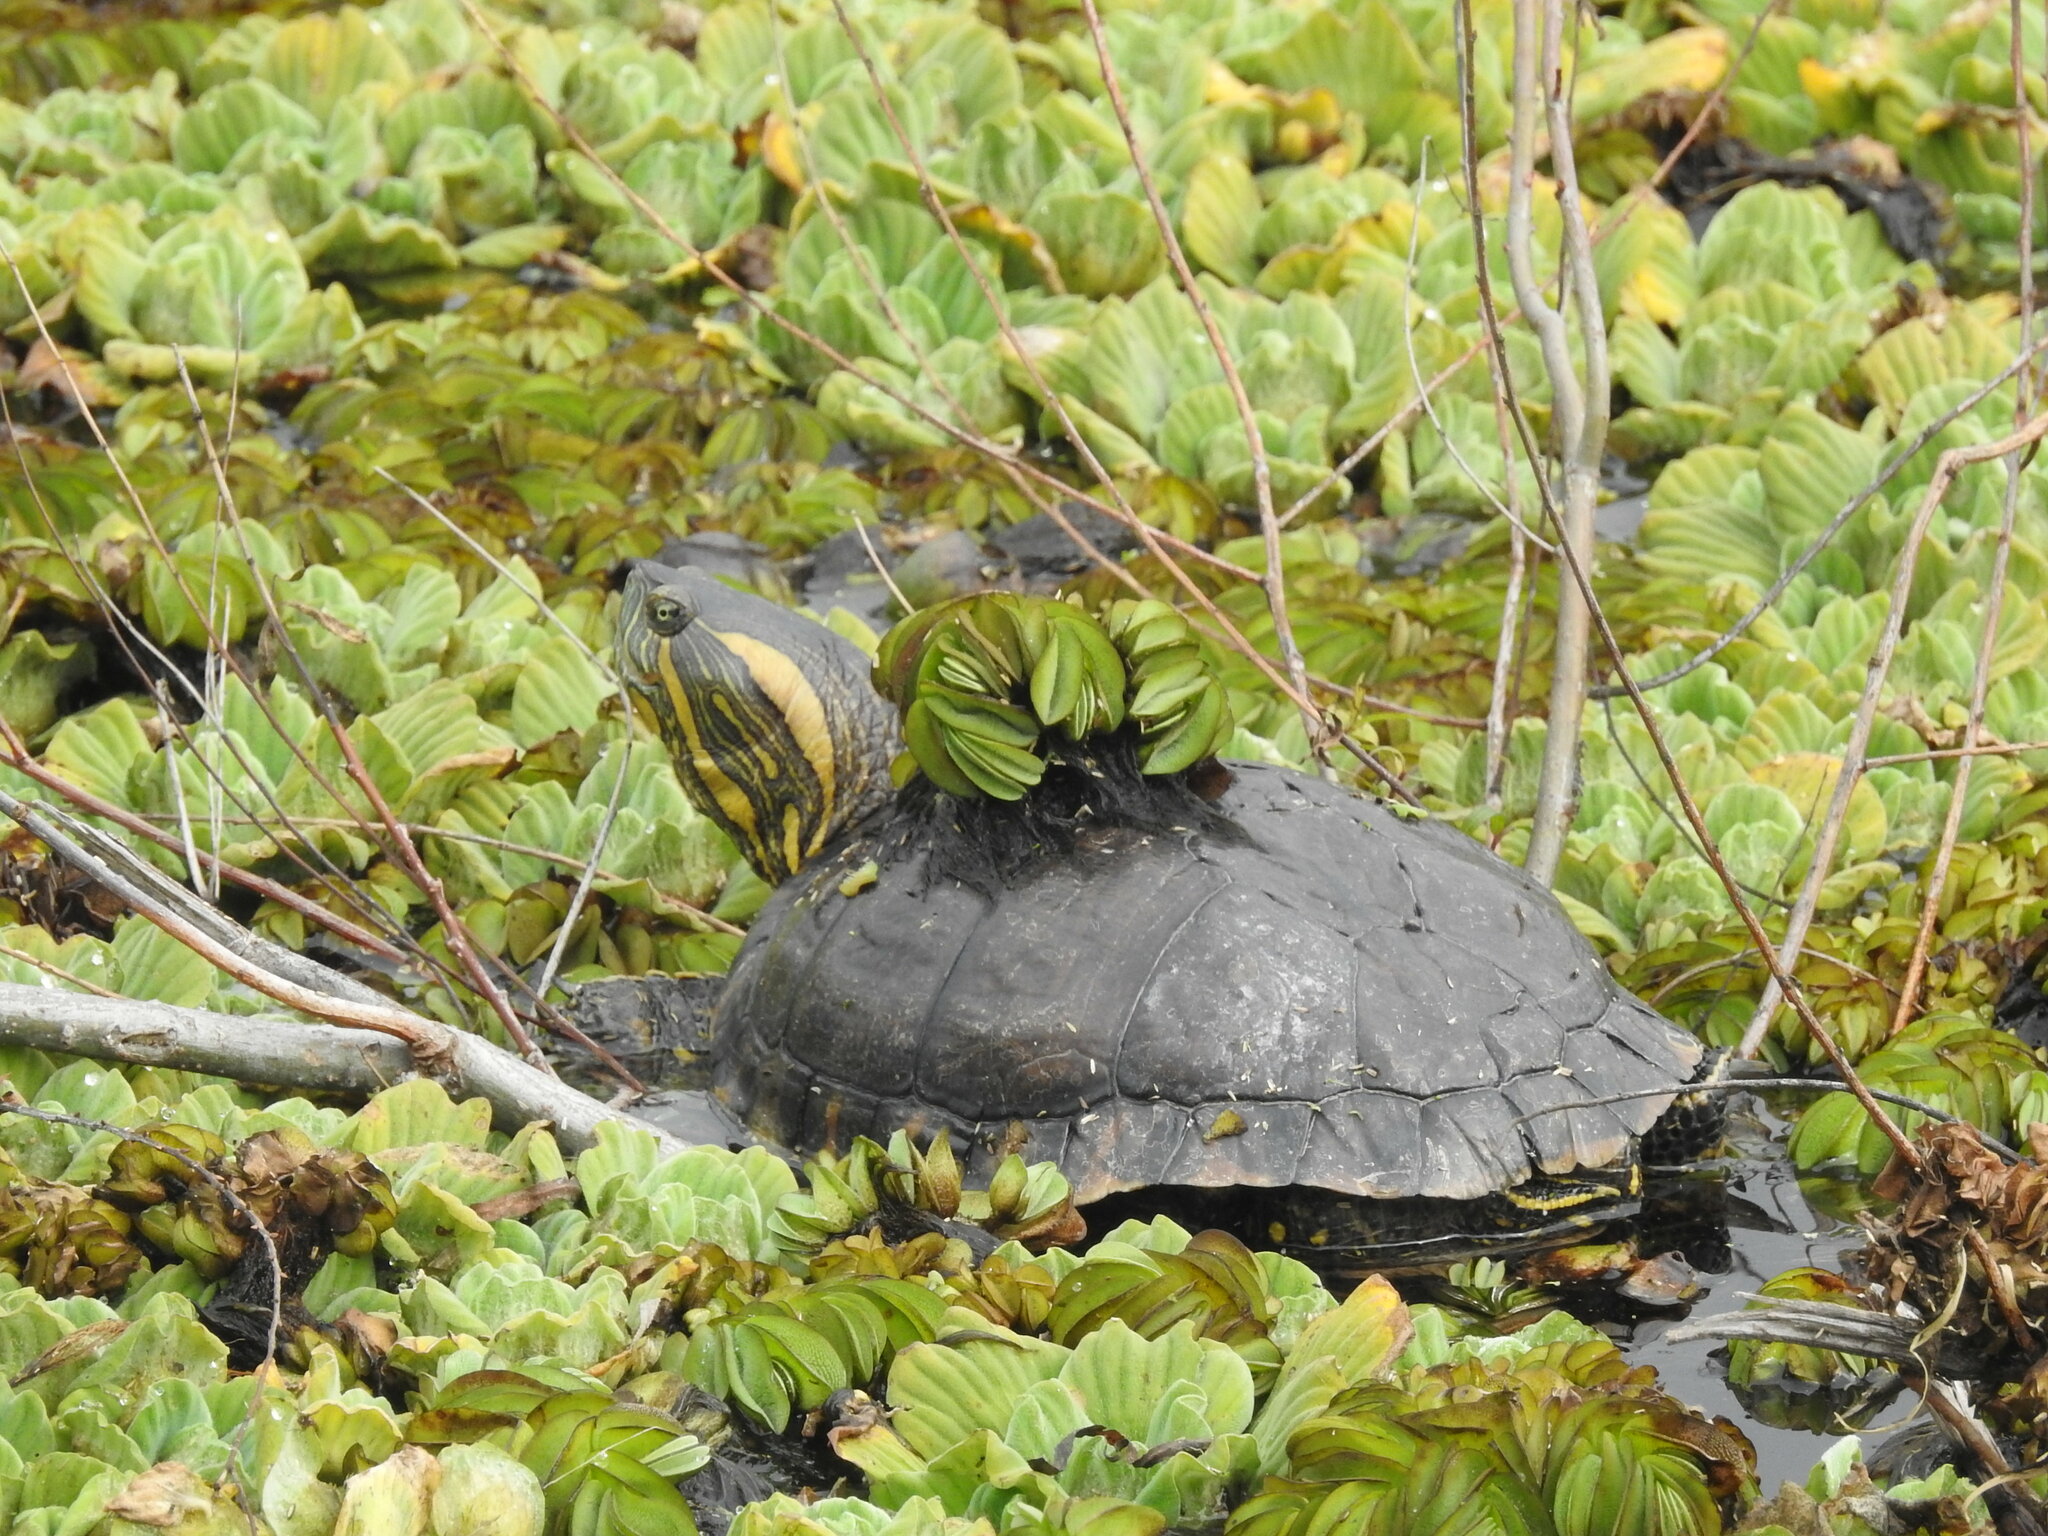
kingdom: Animalia
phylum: Chordata
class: Testudines
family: Emydidae
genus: Trachemys
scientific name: Trachemys dorbigni
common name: Black-bellied slider
